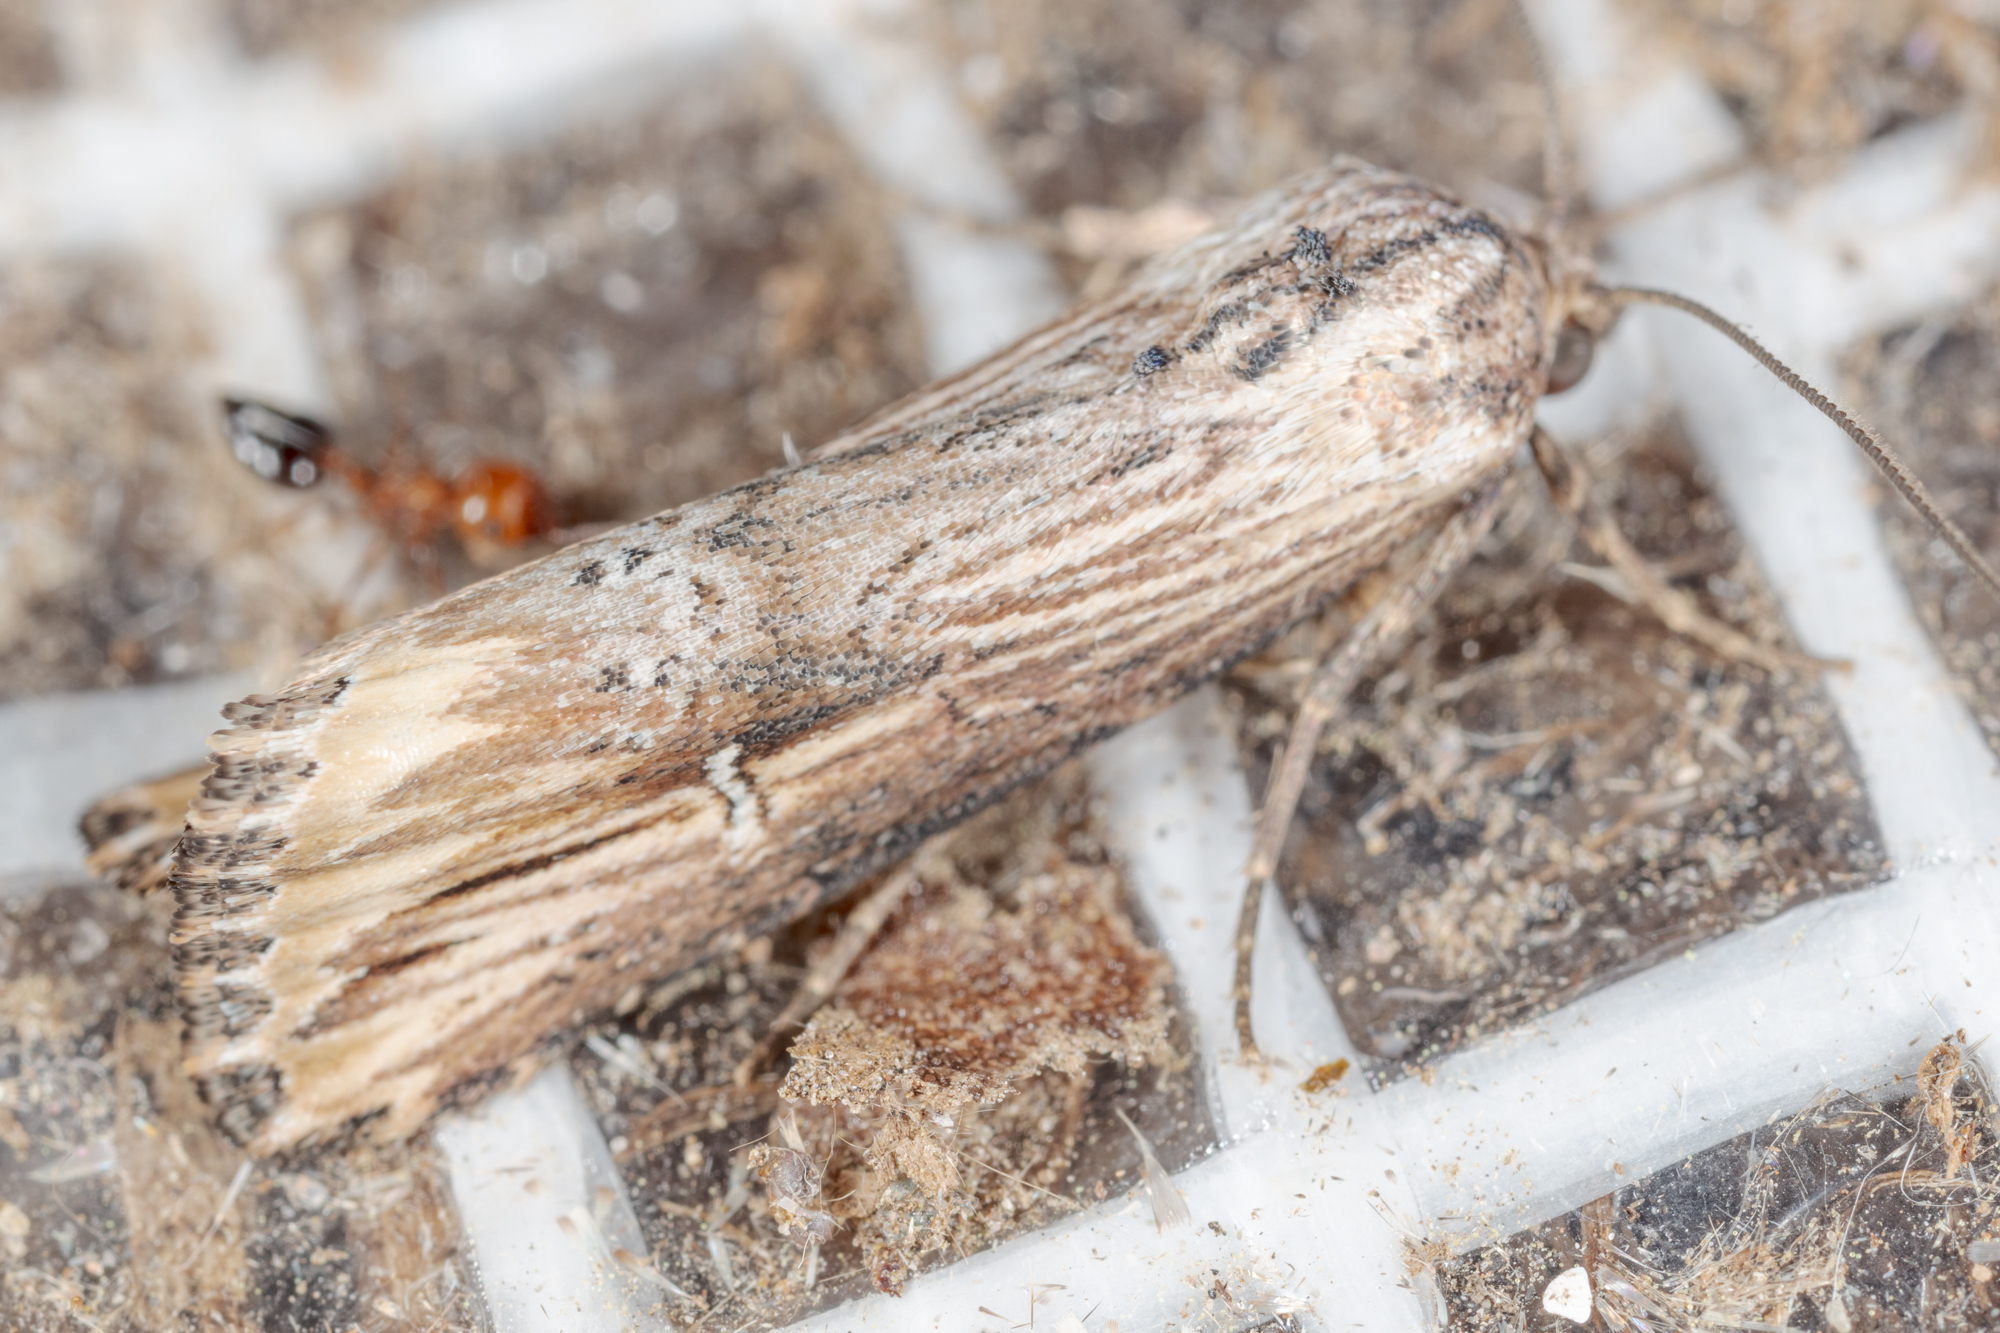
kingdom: Animalia
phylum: Arthropoda
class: Insecta
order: Lepidoptera
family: Noctuidae
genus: Crambodes
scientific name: Crambodes talidiformis
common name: Verbena moth
